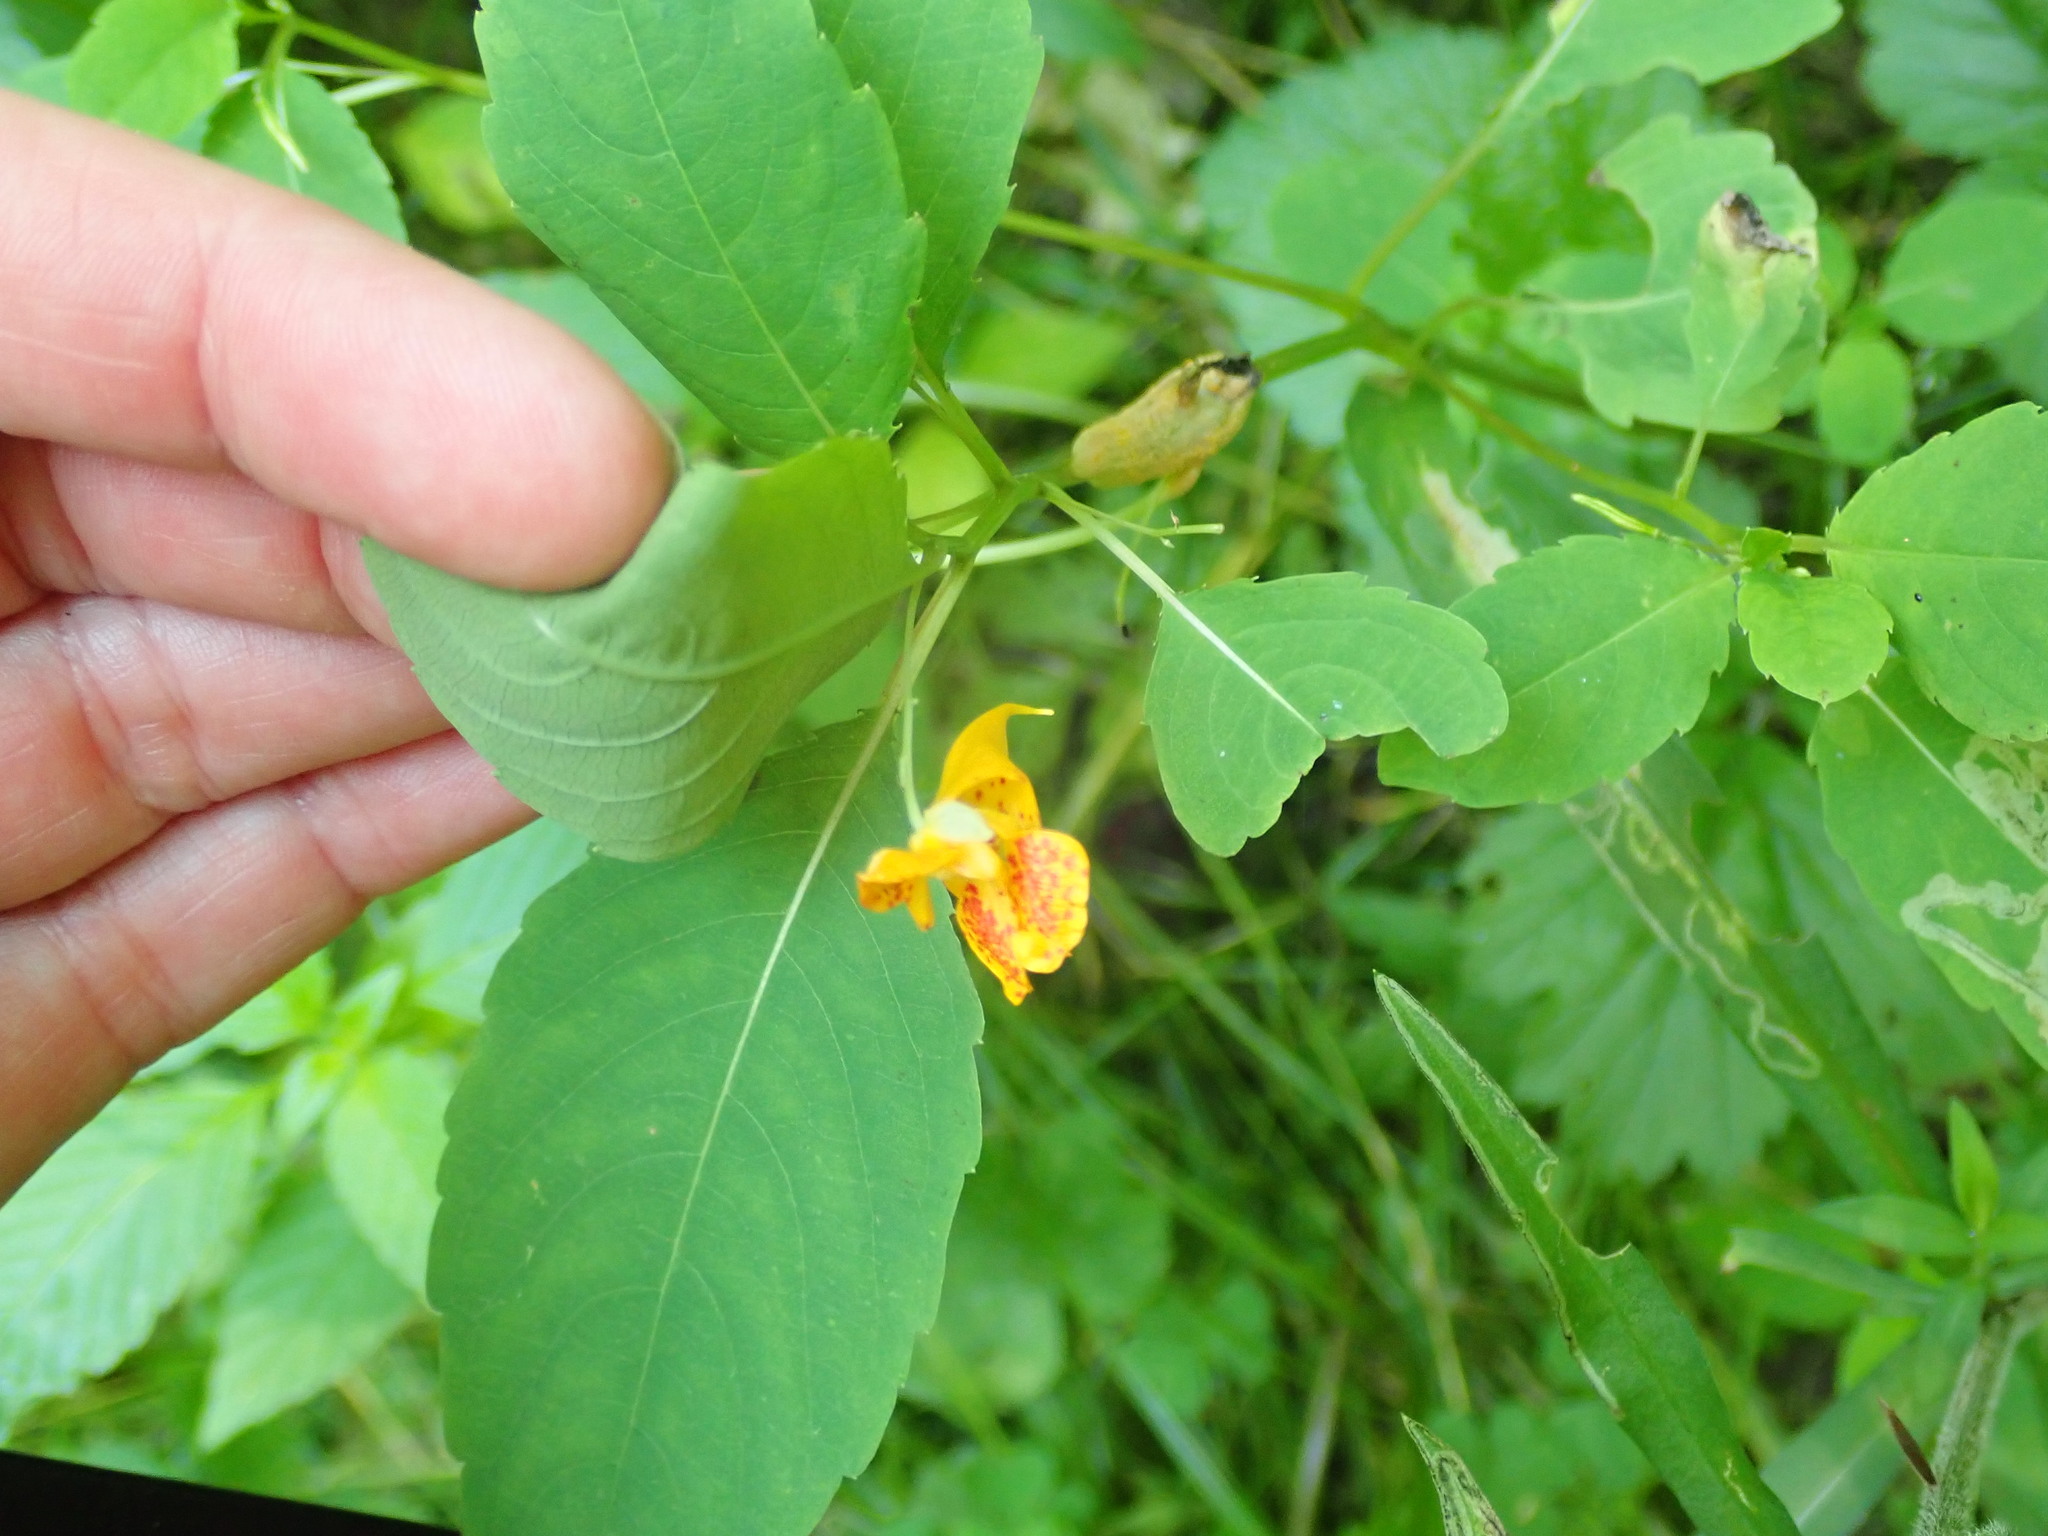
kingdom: Plantae
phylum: Tracheophyta
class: Magnoliopsida
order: Ericales
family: Balsaminaceae
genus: Impatiens
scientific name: Impatiens capensis
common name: Orange balsam
